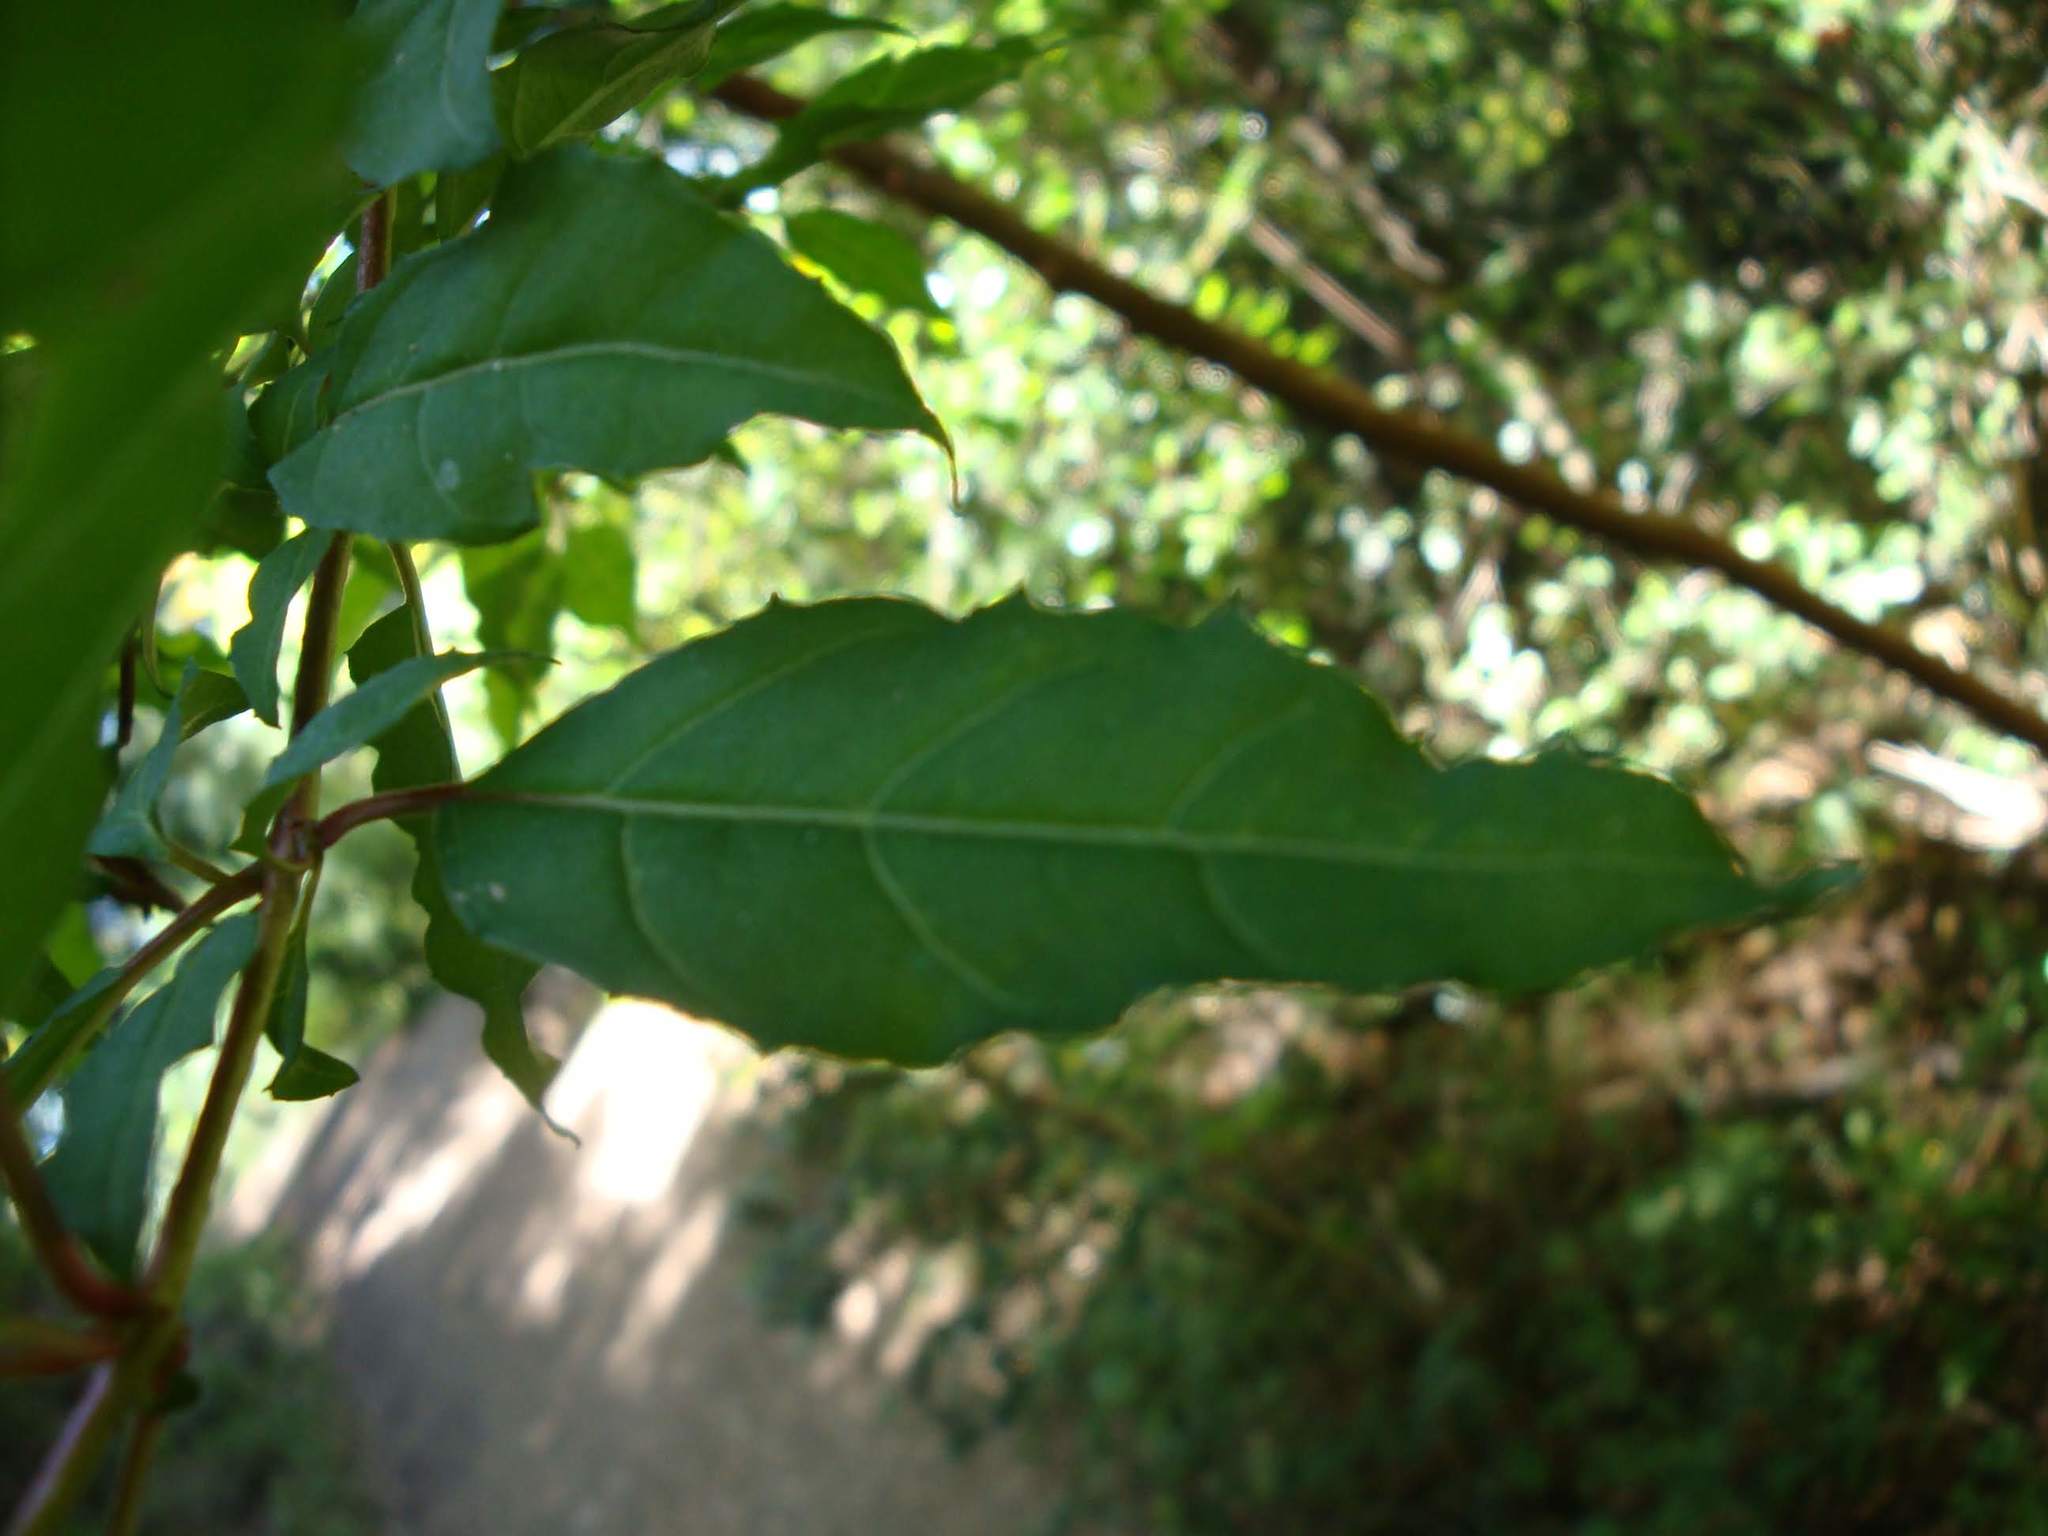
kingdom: Plantae
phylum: Tracheophyta
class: Magnoliopsida
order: Myrtales
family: Onagraceae
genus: Fuchsia
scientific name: Fuchsia magellanica
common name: Hardy fuchsia
